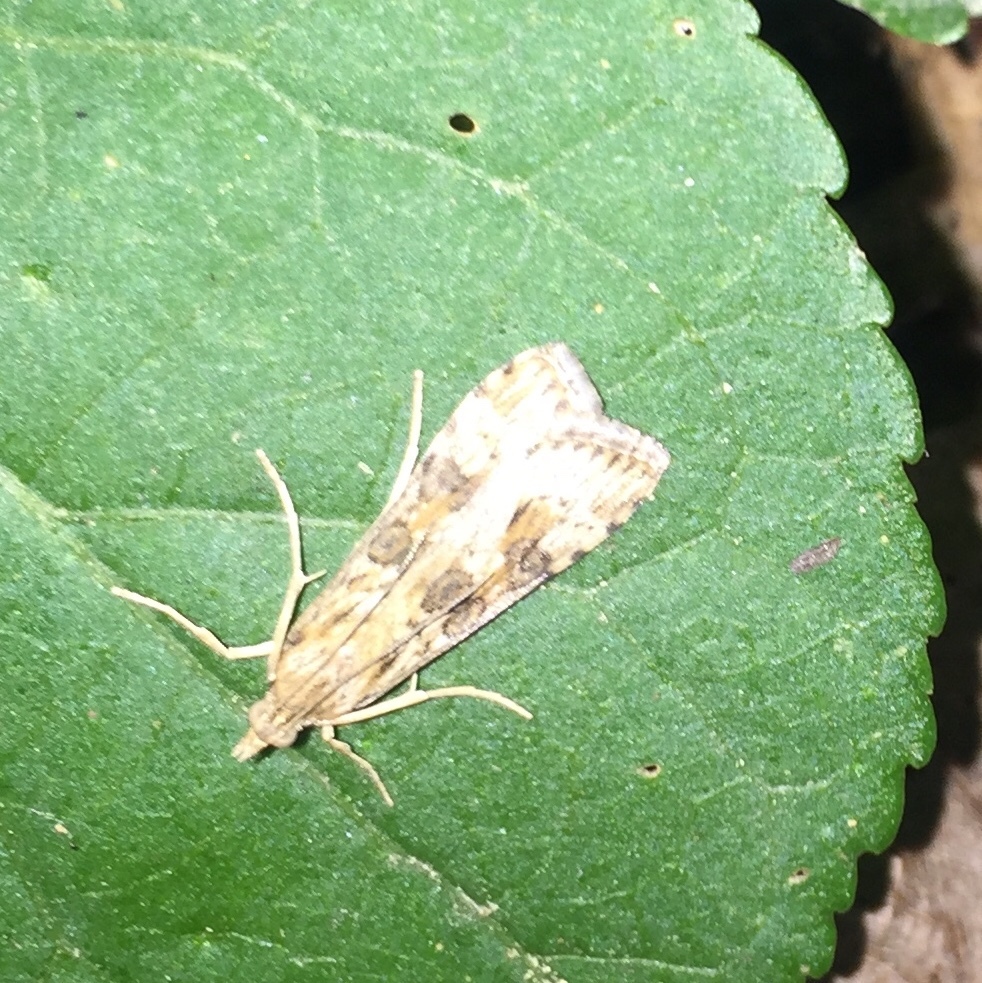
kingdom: Animalia
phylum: Arthropoda
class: Insecta
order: Lepidoptera
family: Crambidae
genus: Nomophila
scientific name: Nomophila nearctica
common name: American rush veneer
